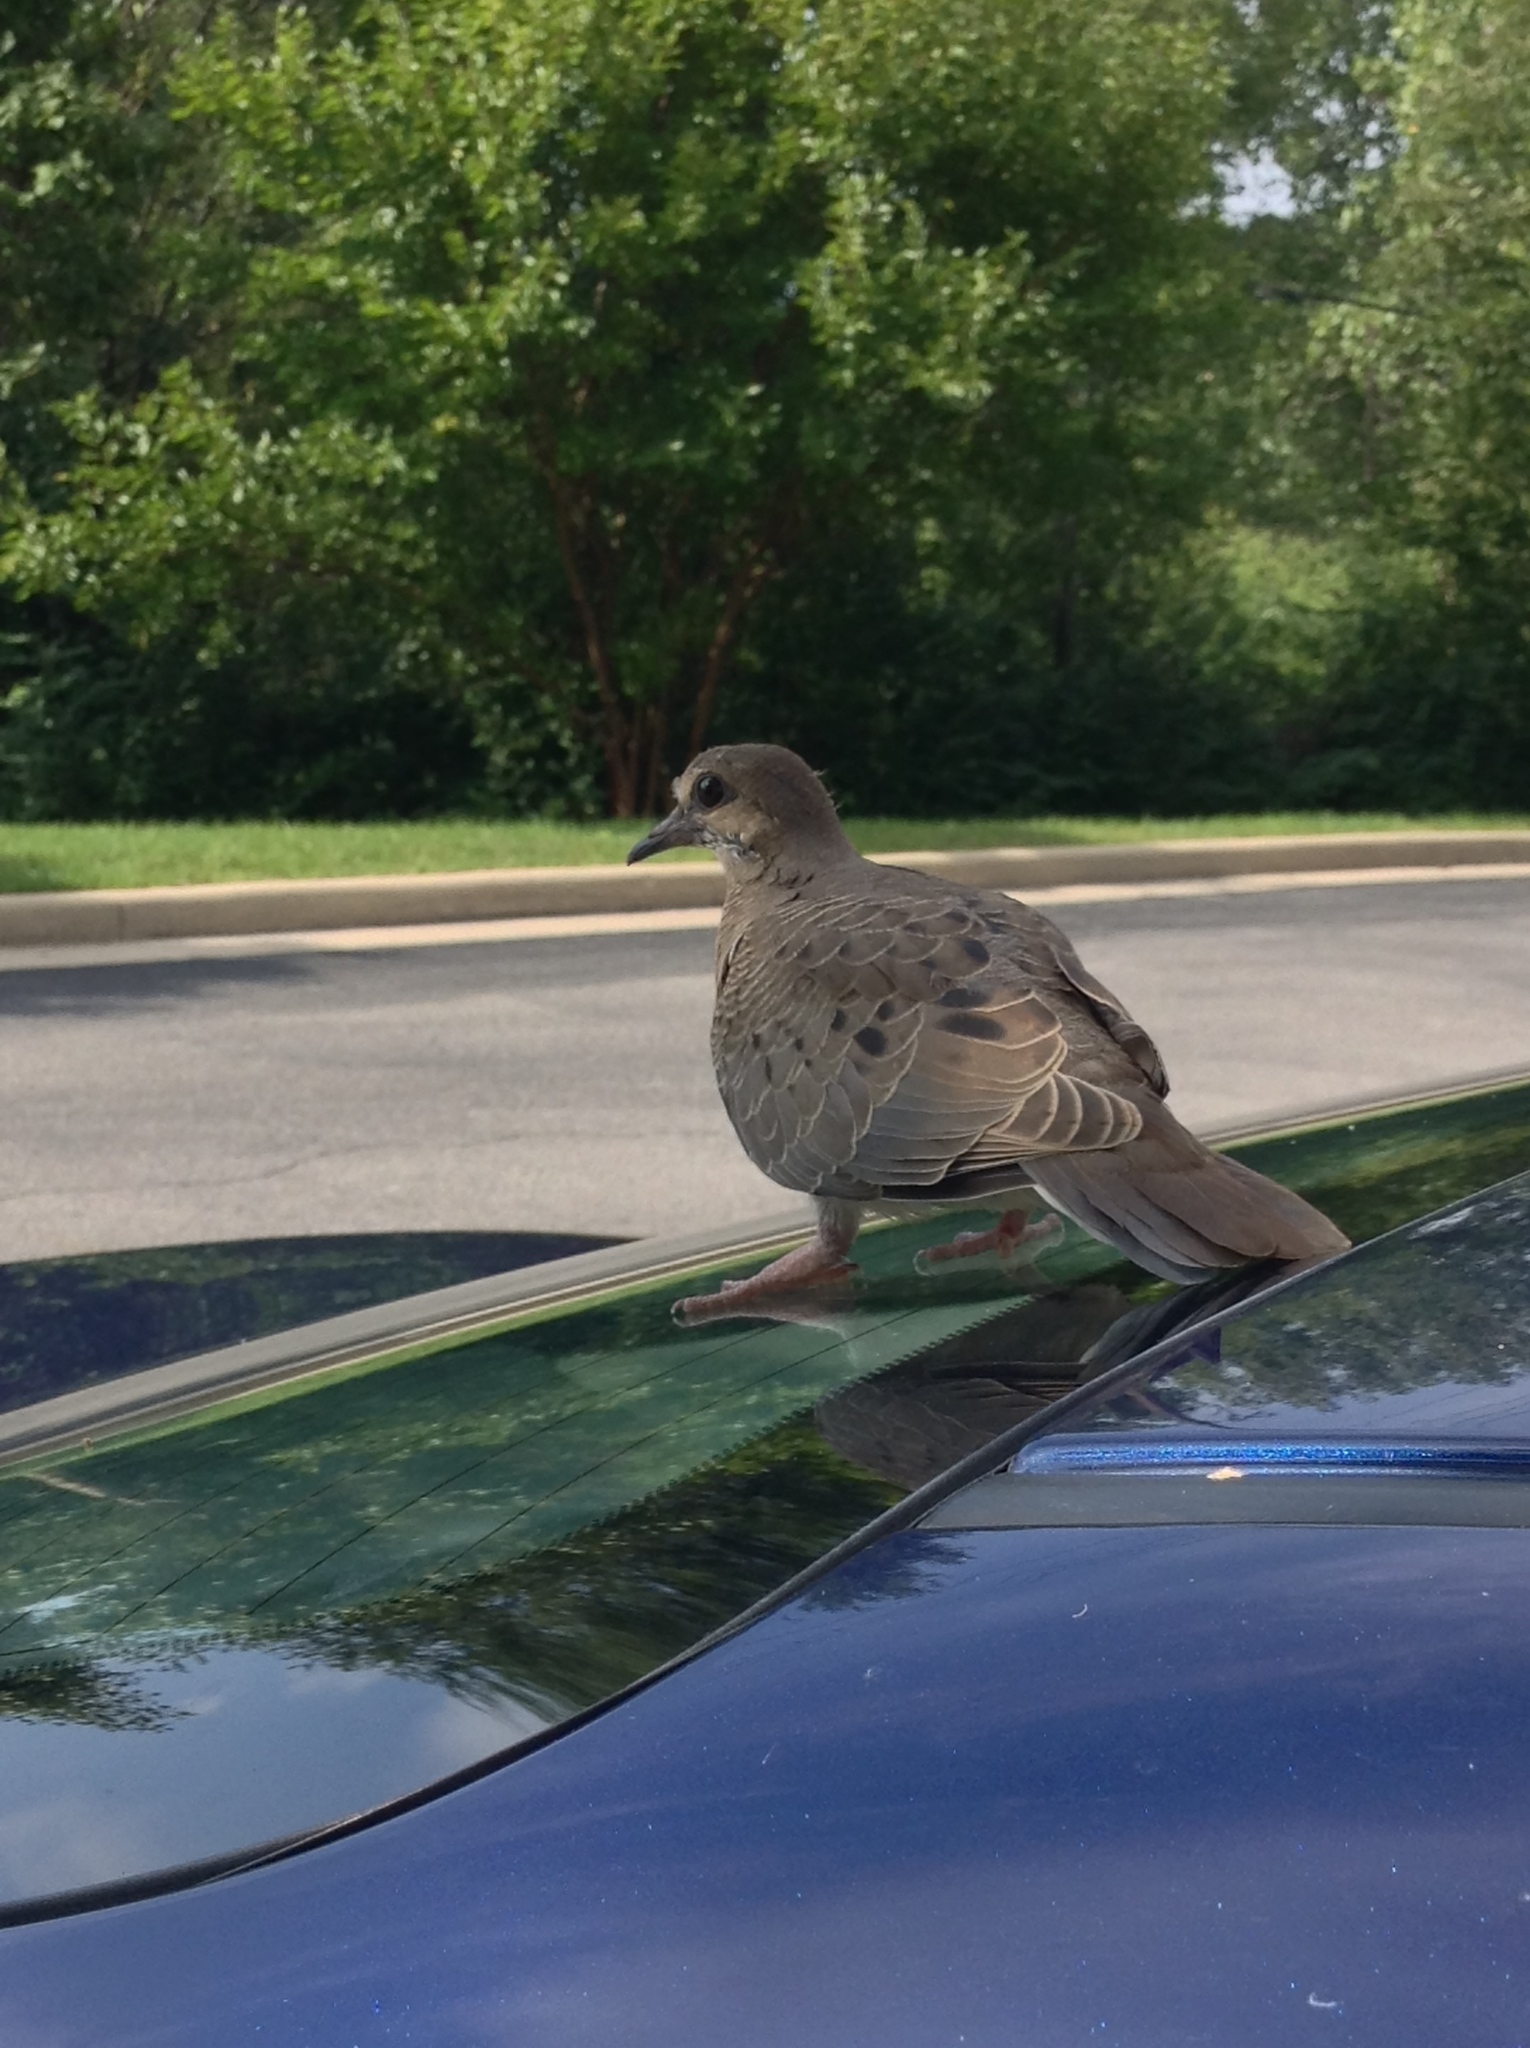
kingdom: Animalia
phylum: Chordata
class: Aves
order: Columbiformes
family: Columbidae
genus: Zenaida
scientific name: Zenaida macroura
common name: Mourning dove
